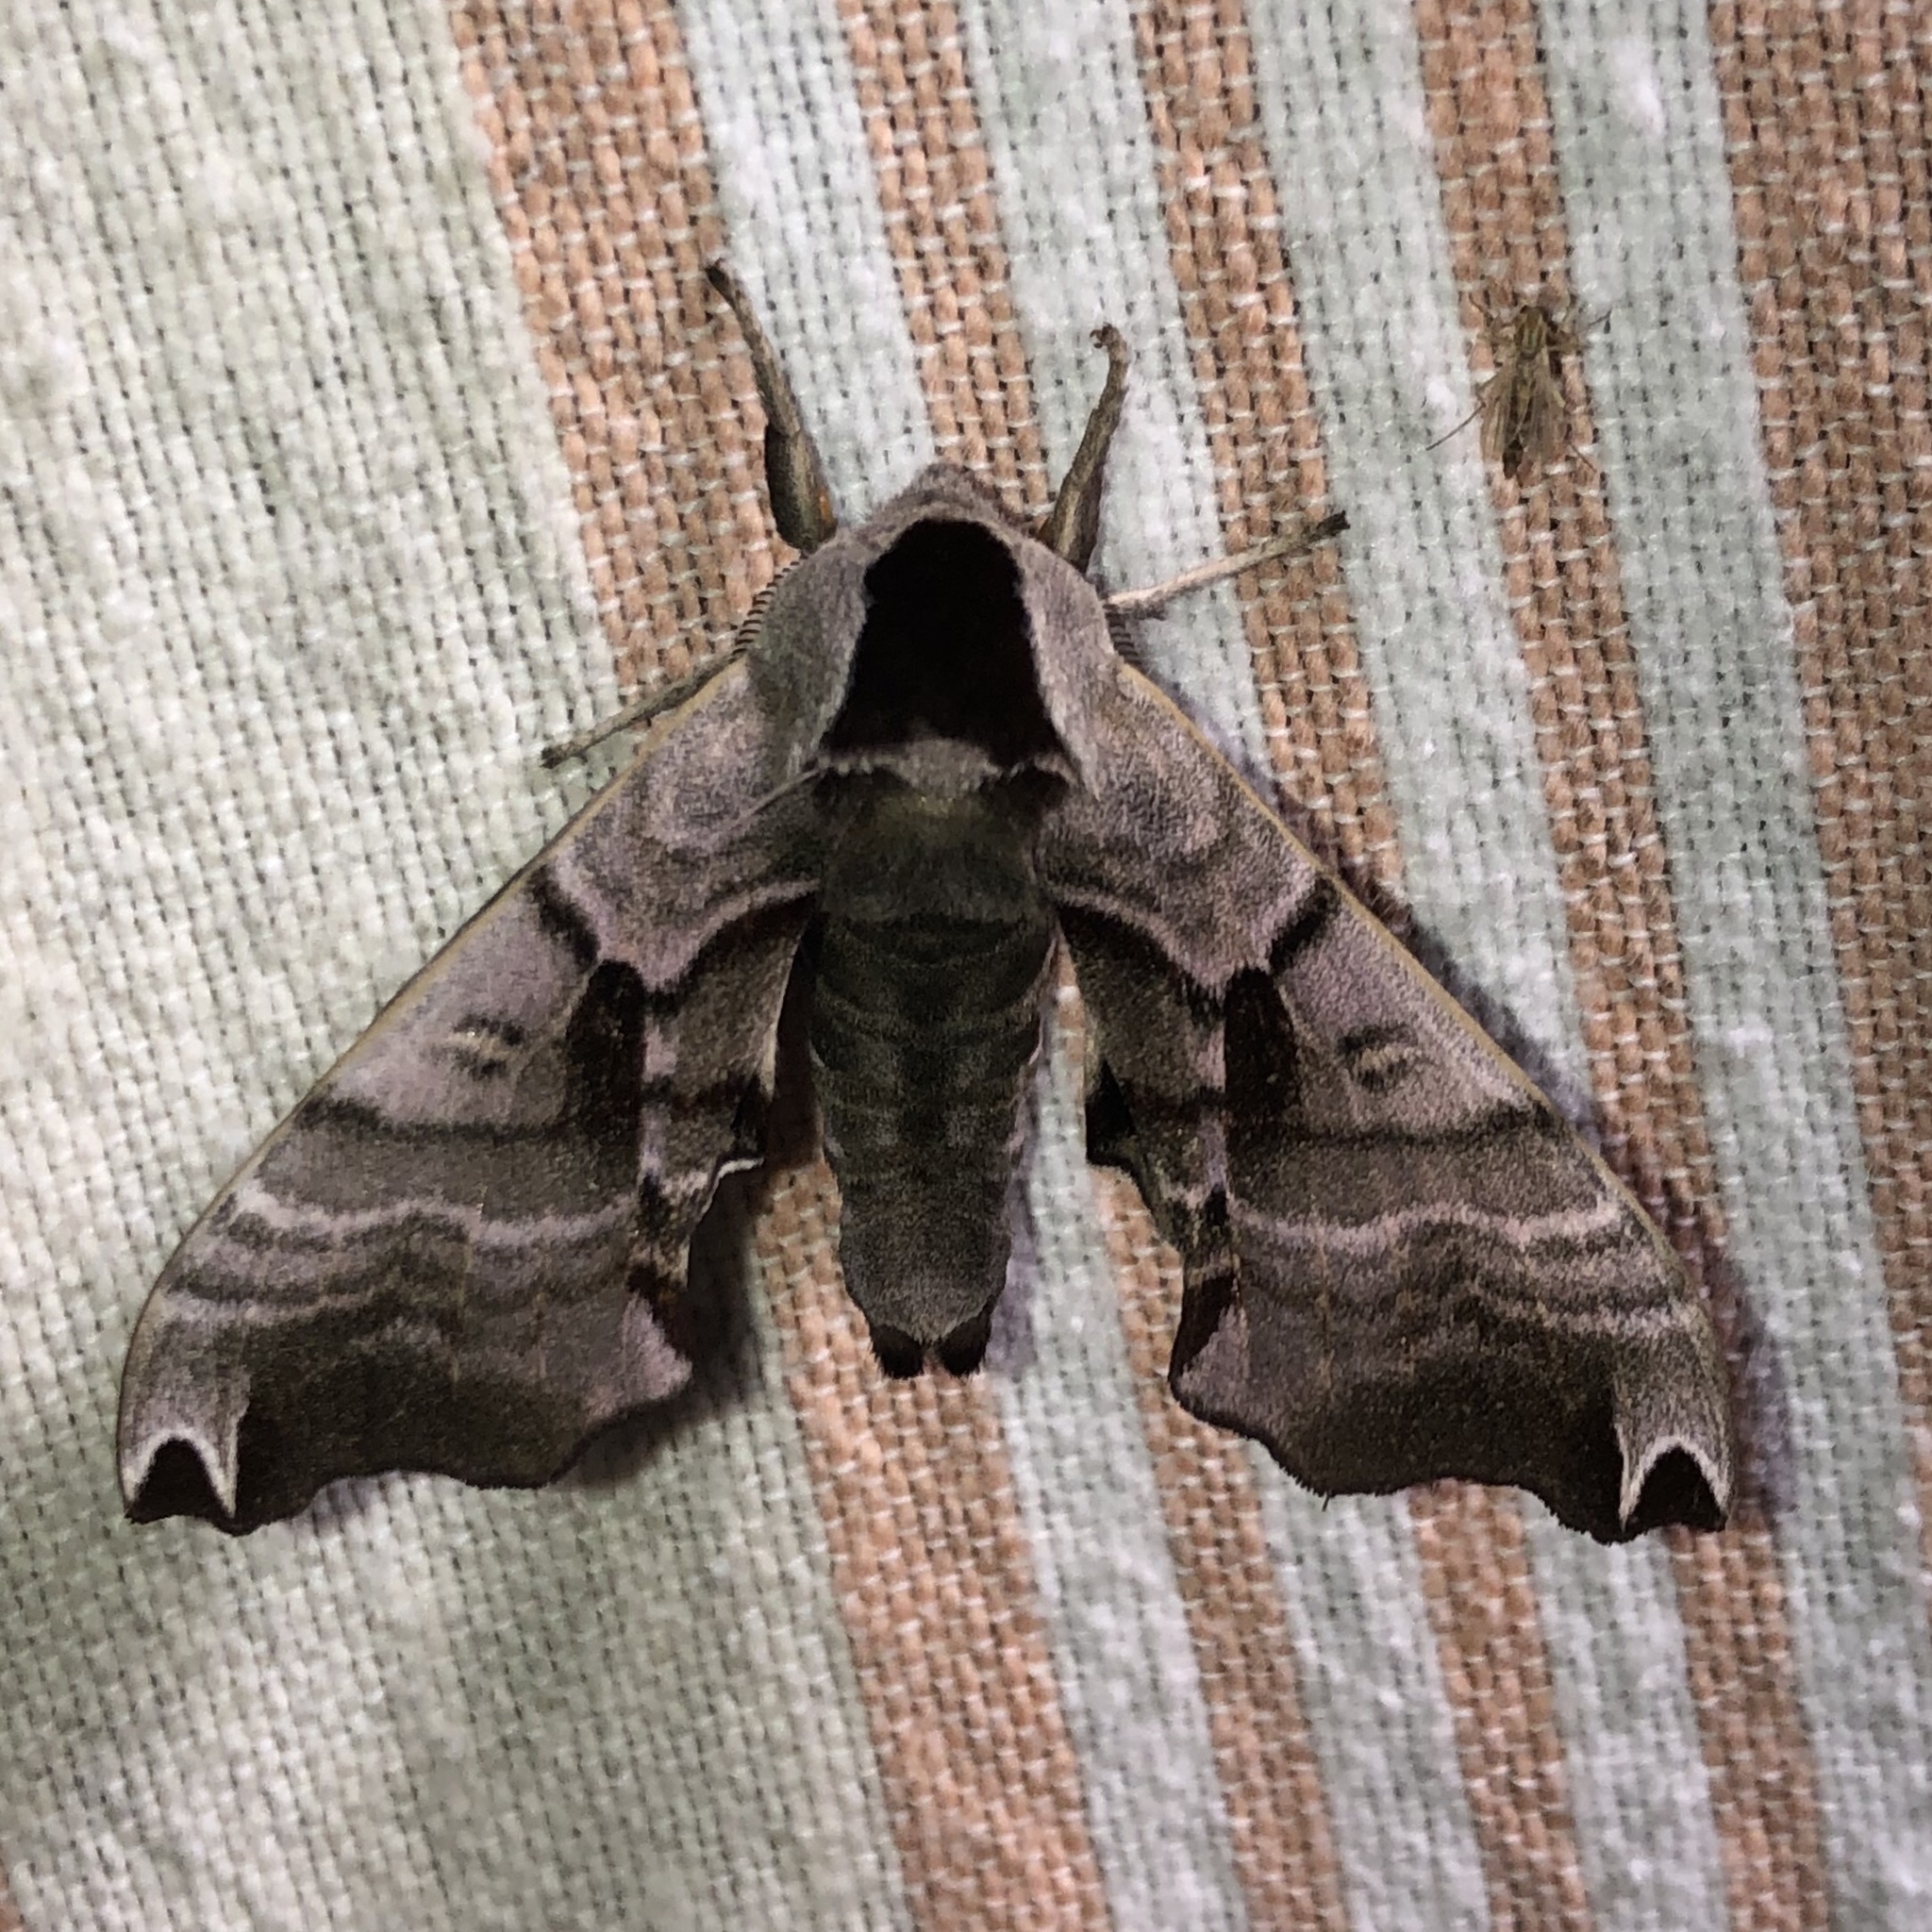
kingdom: Animalia
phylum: Arthropoda
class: Insecta
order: Lepidoptera
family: Sphingidae
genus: Smerinthus
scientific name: Smerinthus jamaicensis
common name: Twin spotted sphinx
